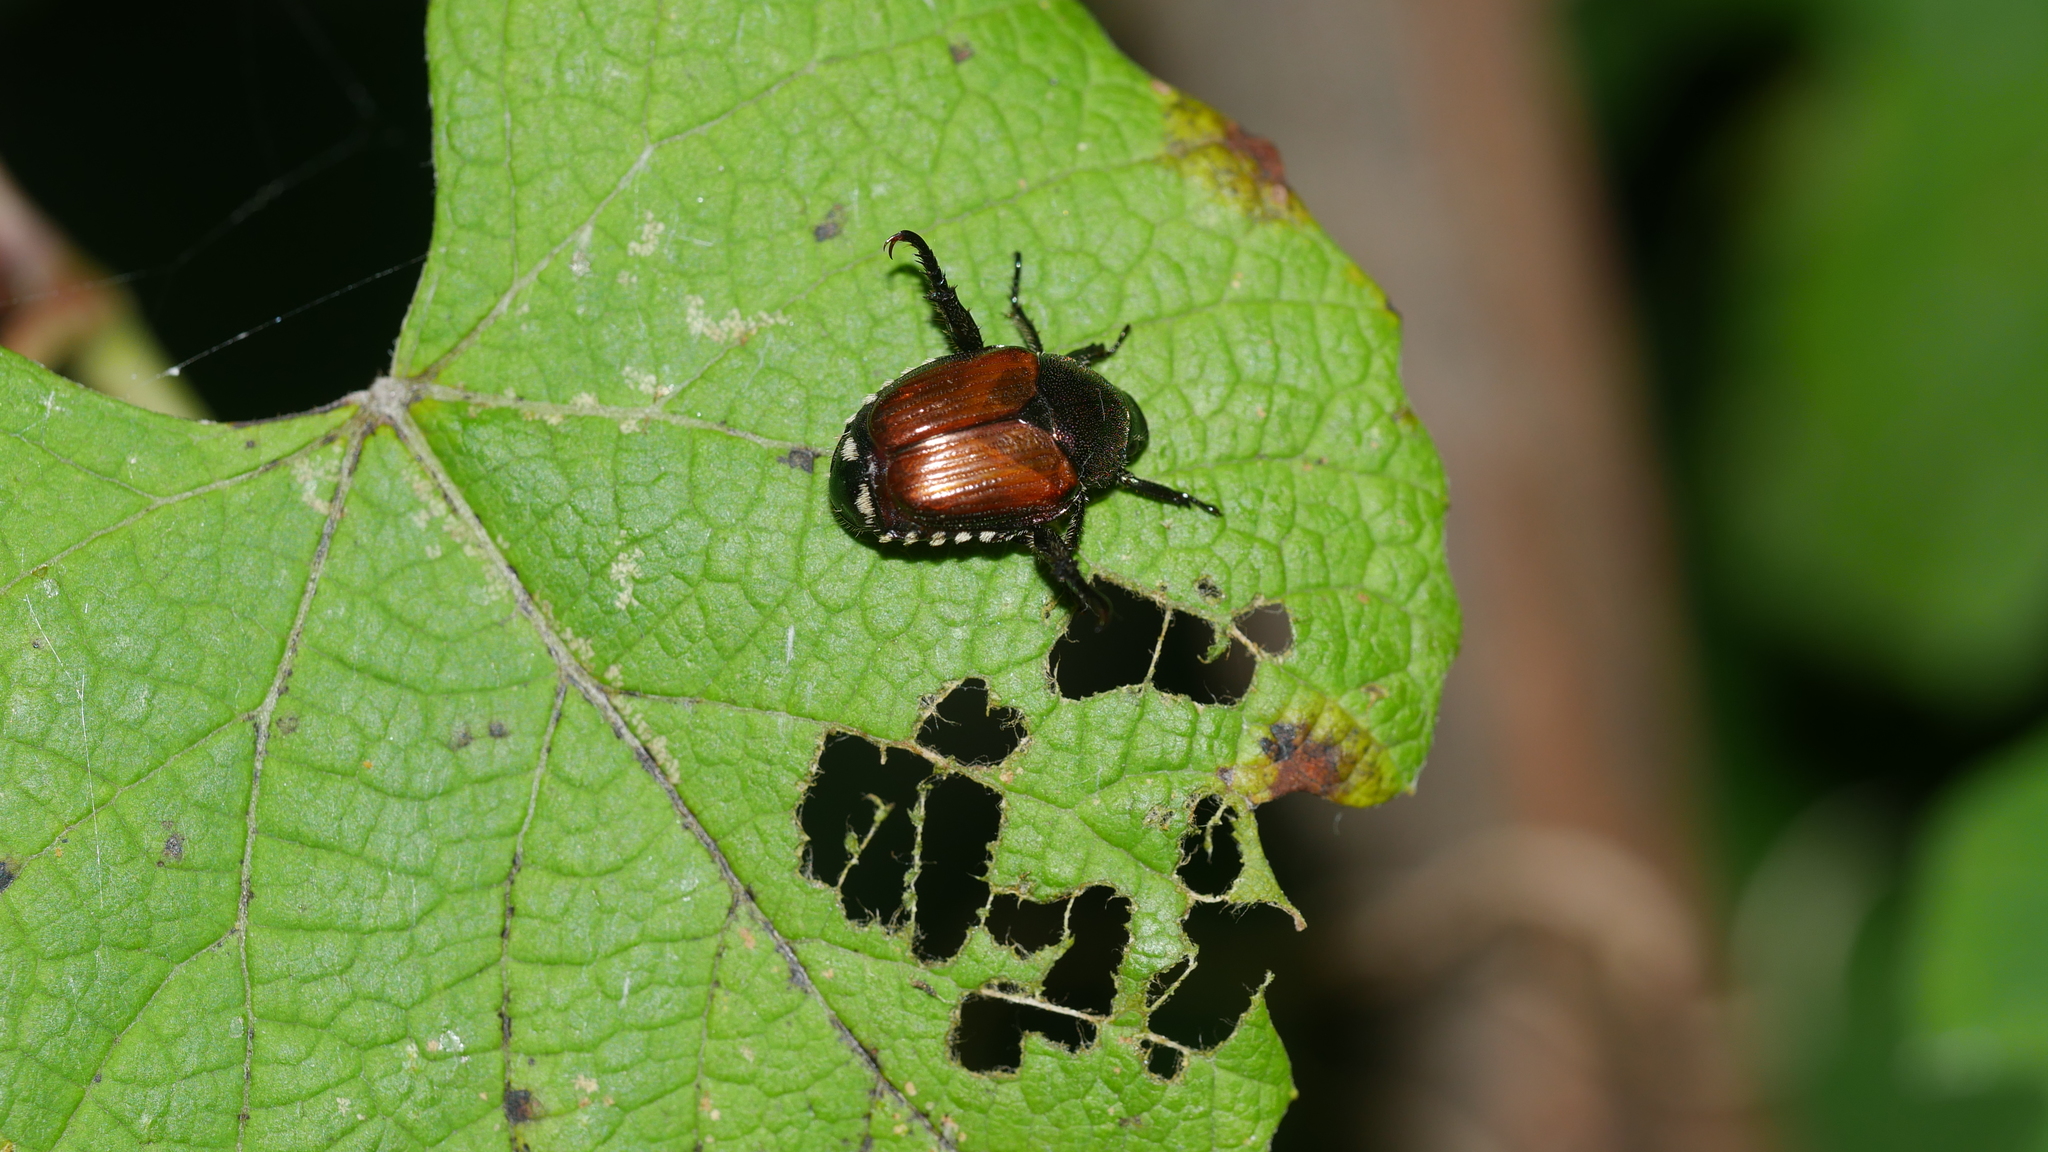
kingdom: Animalia
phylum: Arthropoda
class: Insecta
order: Coleoptera
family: Scarabaeidae
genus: Popillia
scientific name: Popillia japonica
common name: Japanese beetle
